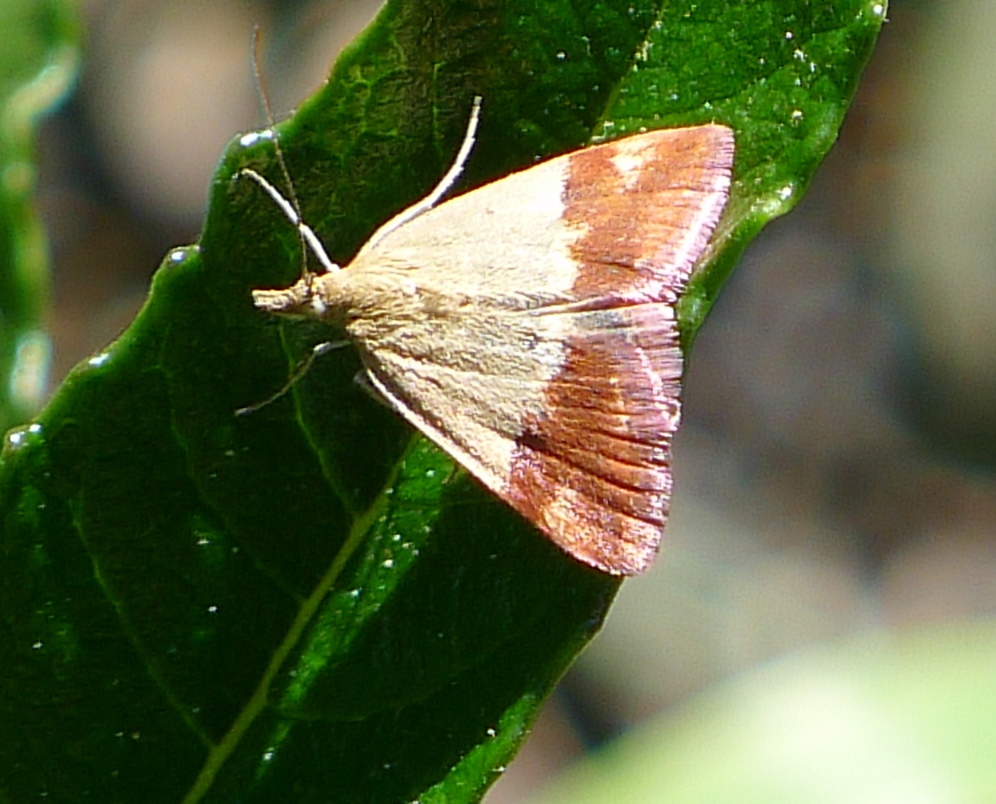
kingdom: Animalia
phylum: Arthropoda
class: Insecta
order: Lepidoptera
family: Crambidae
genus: Pyrausta
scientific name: Pyrausta semirubralis
